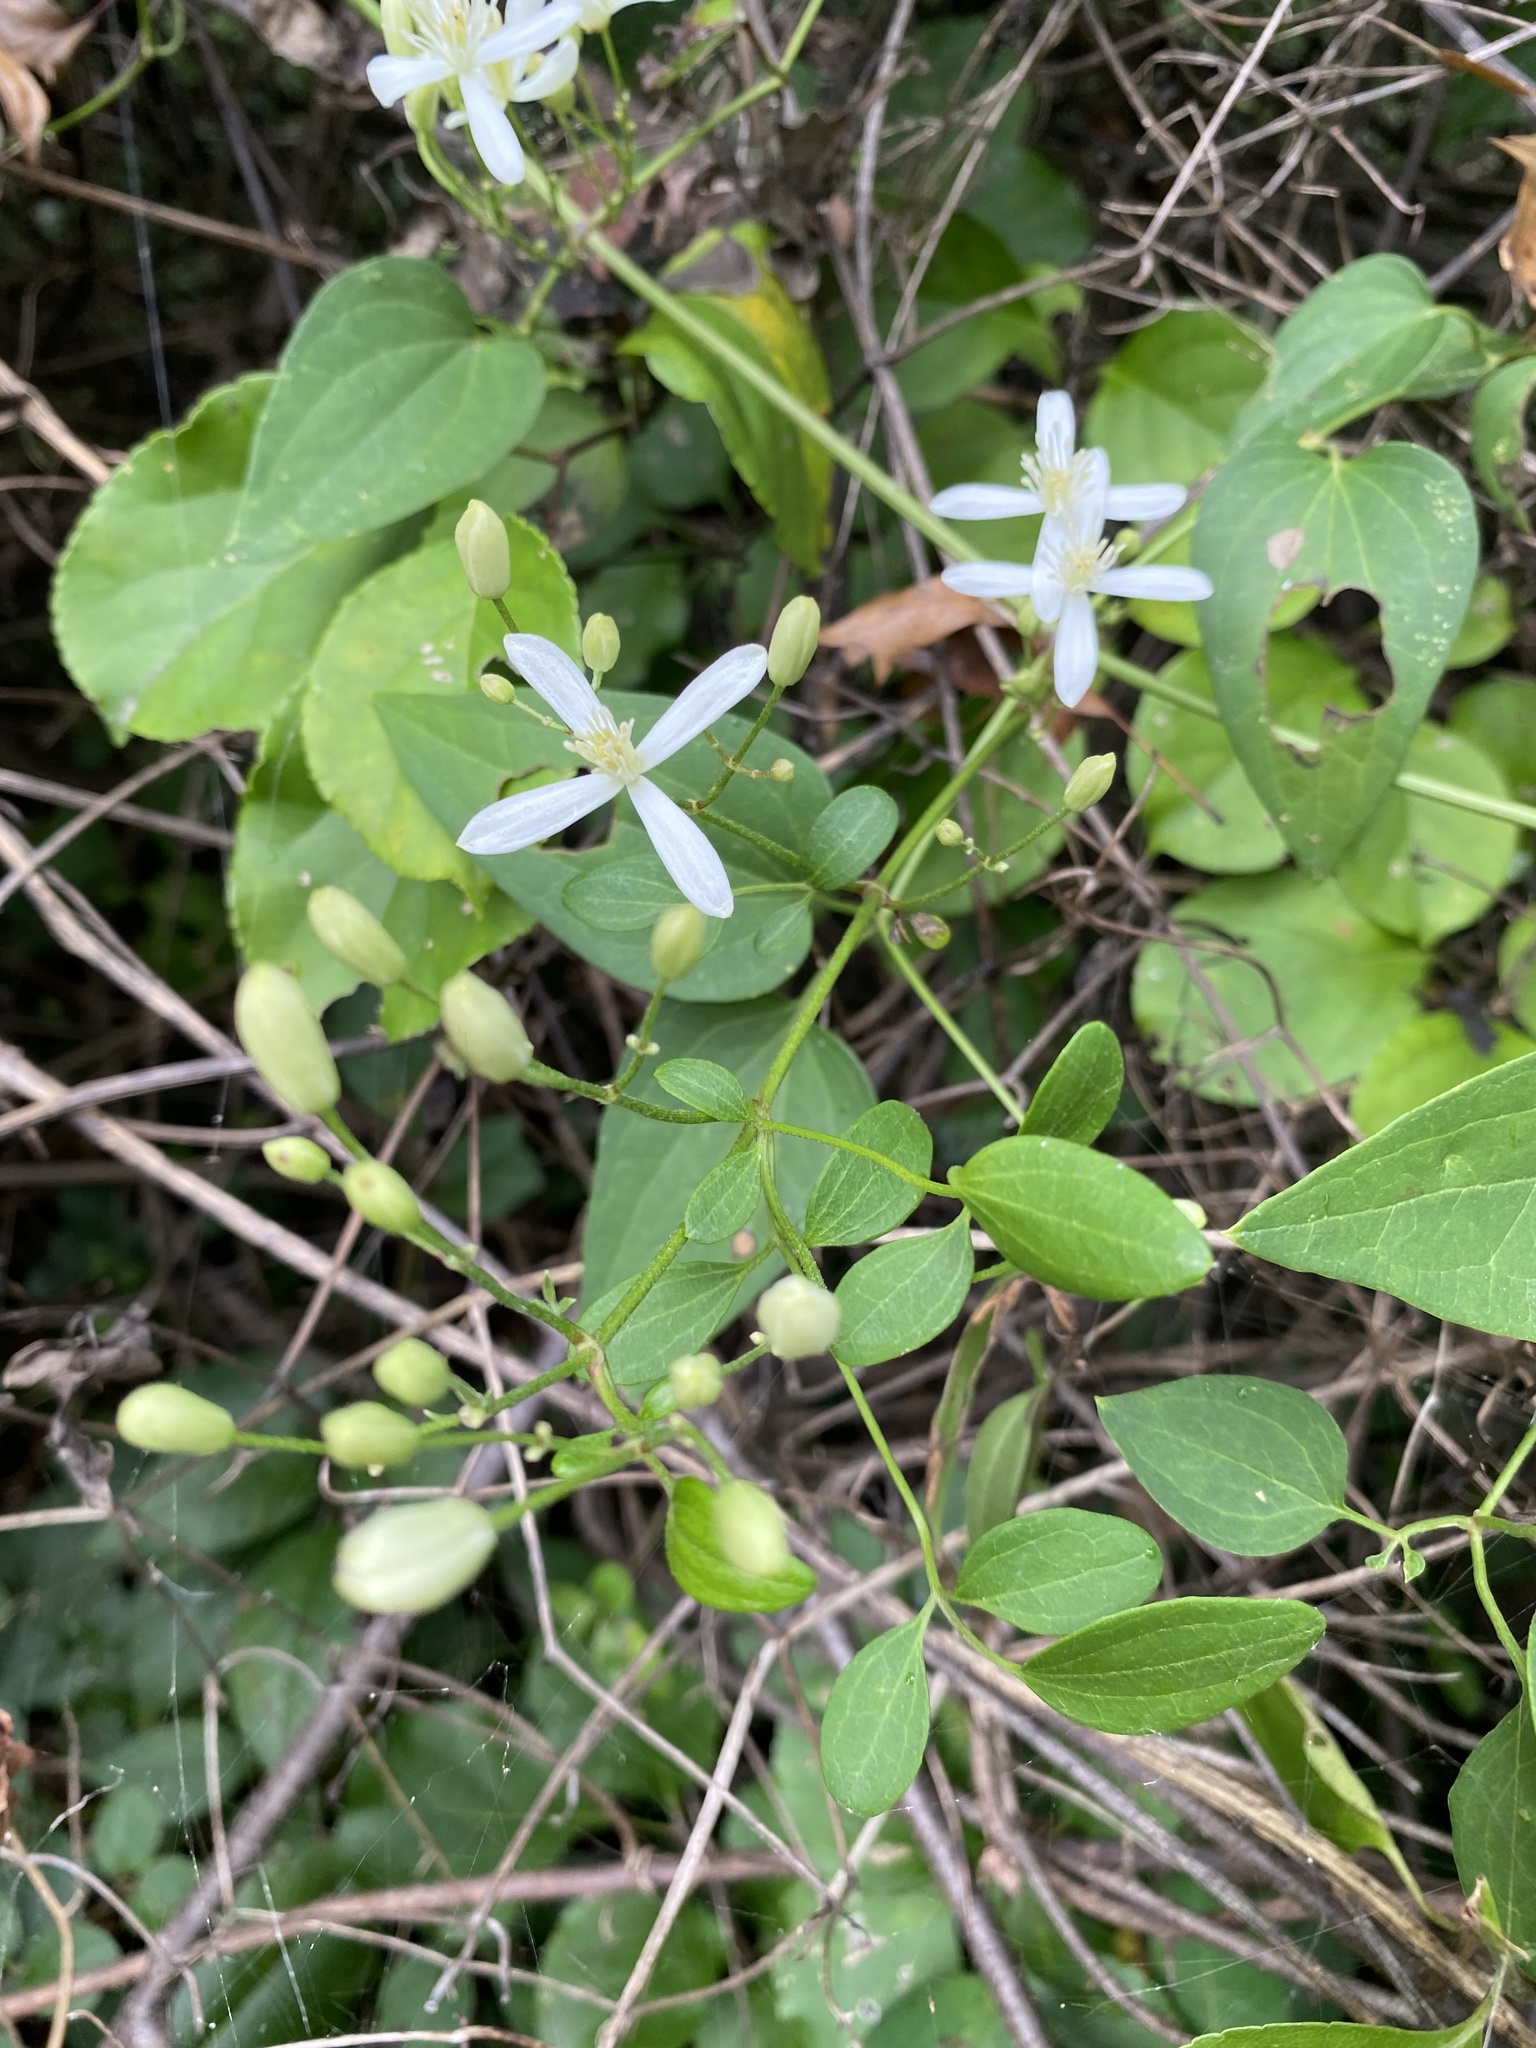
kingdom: Plantae
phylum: Tracheophyta
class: Magnoliopsida
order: Ranunculales
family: Ranunculaceae
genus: Clematis
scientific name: Clematis terniflora
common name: Sweet autumn clematis
